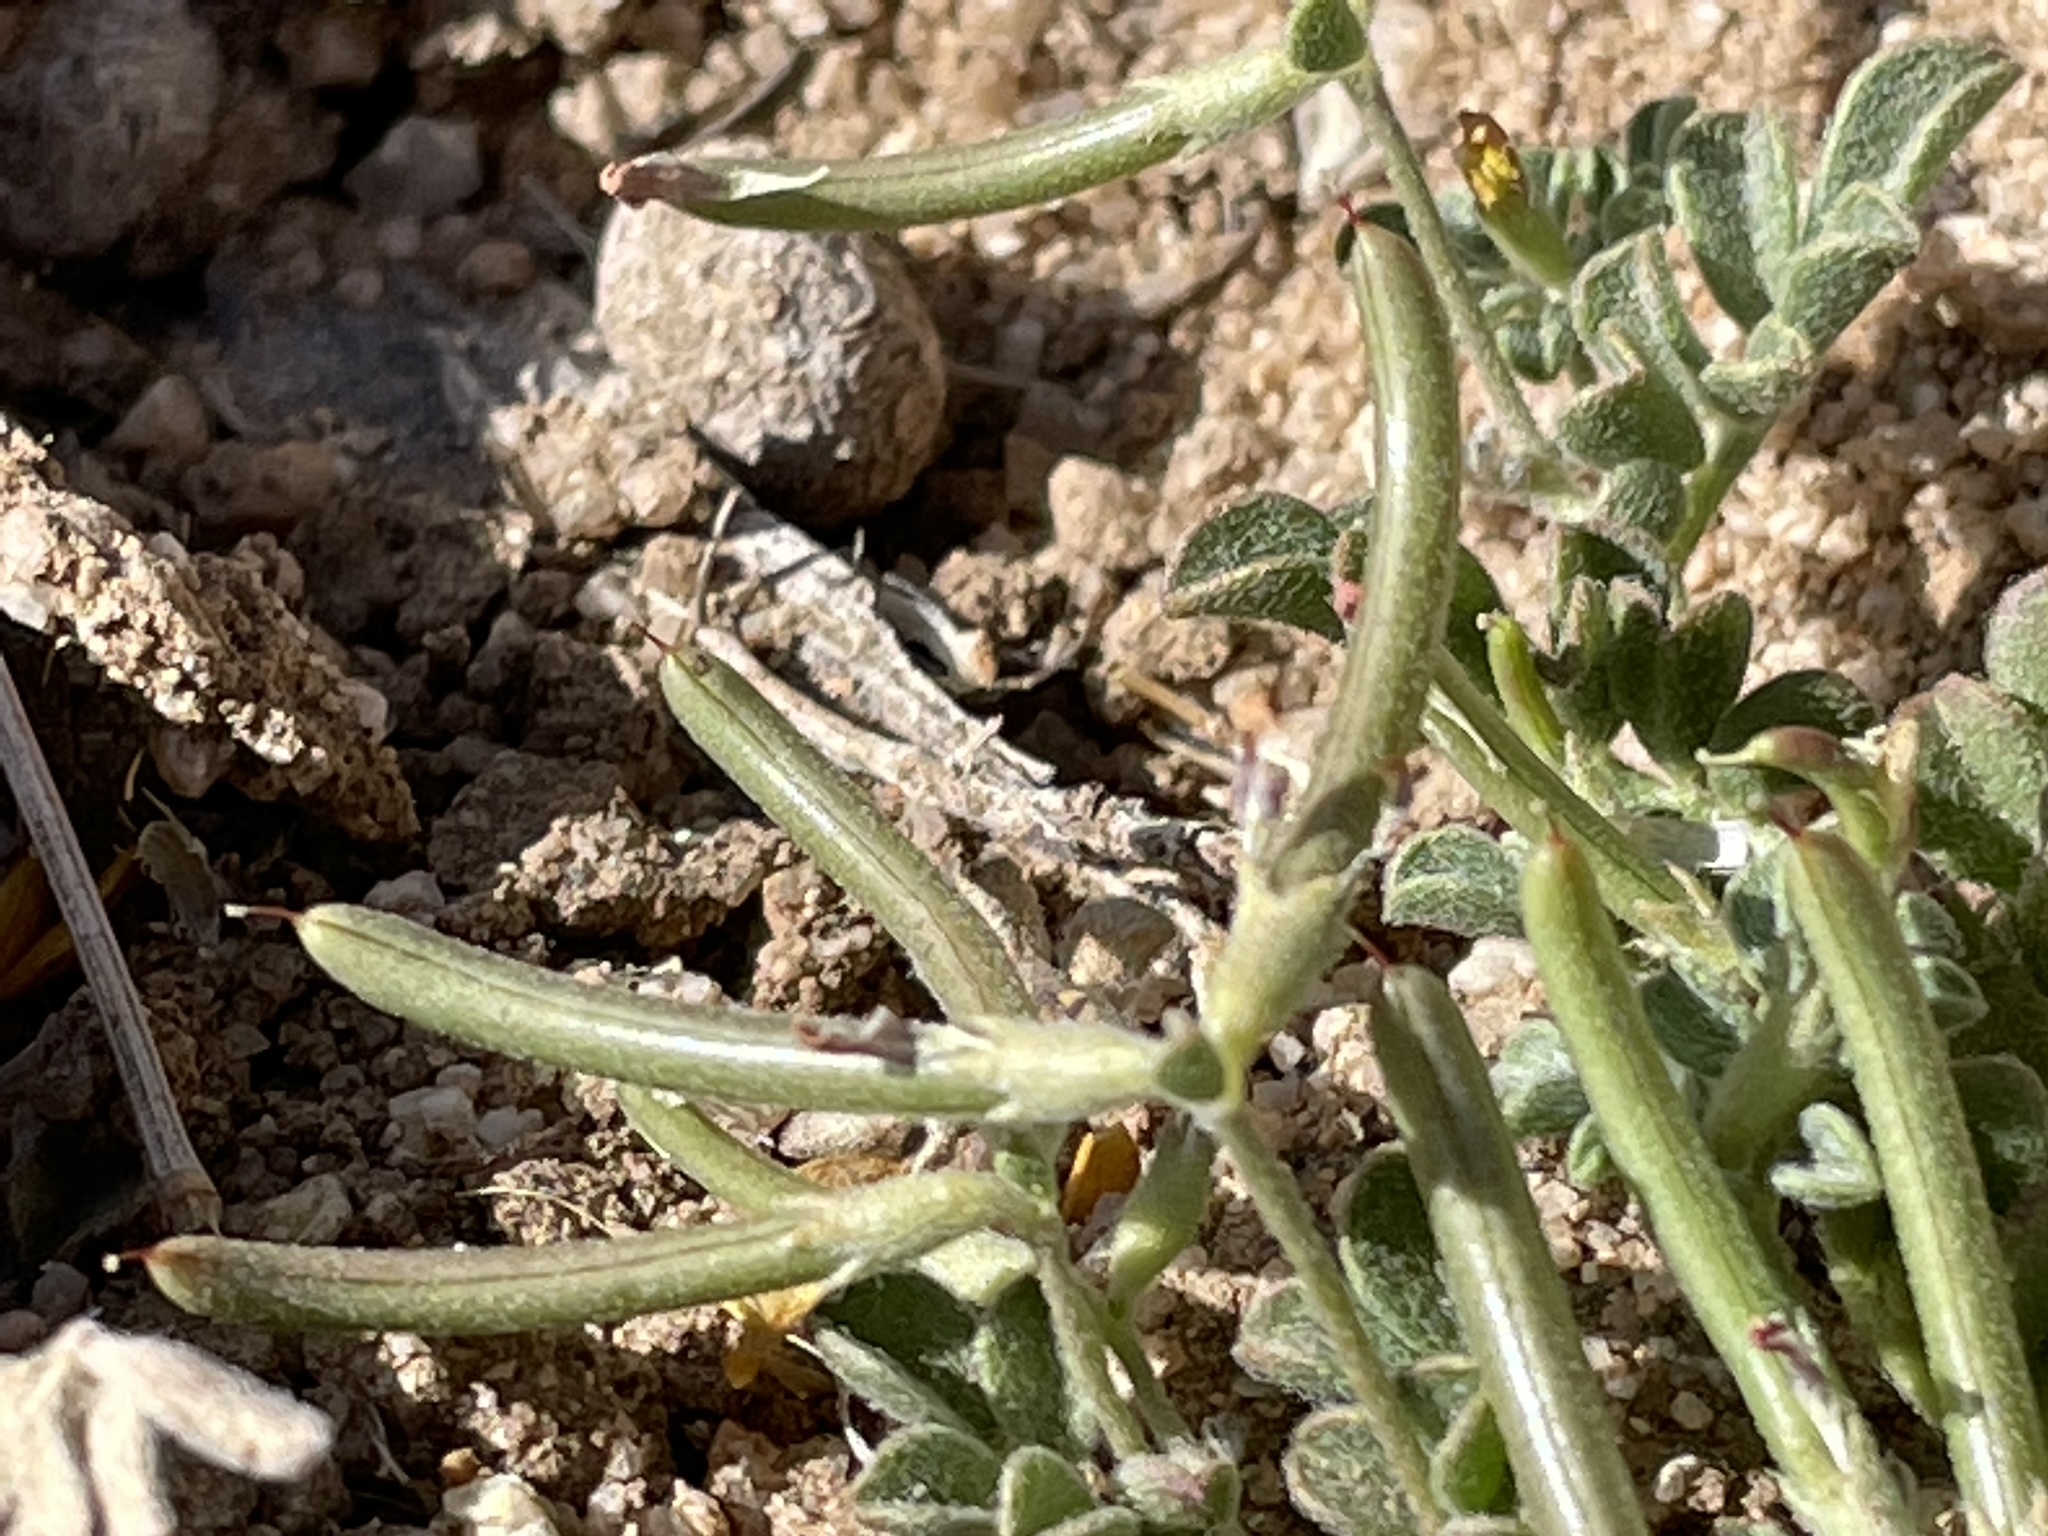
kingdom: Plantae
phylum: Tracheophyta
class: Magnoliopsida
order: Fabales
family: Fabaceae
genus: Acmispon
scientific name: Acmispon strigosus
